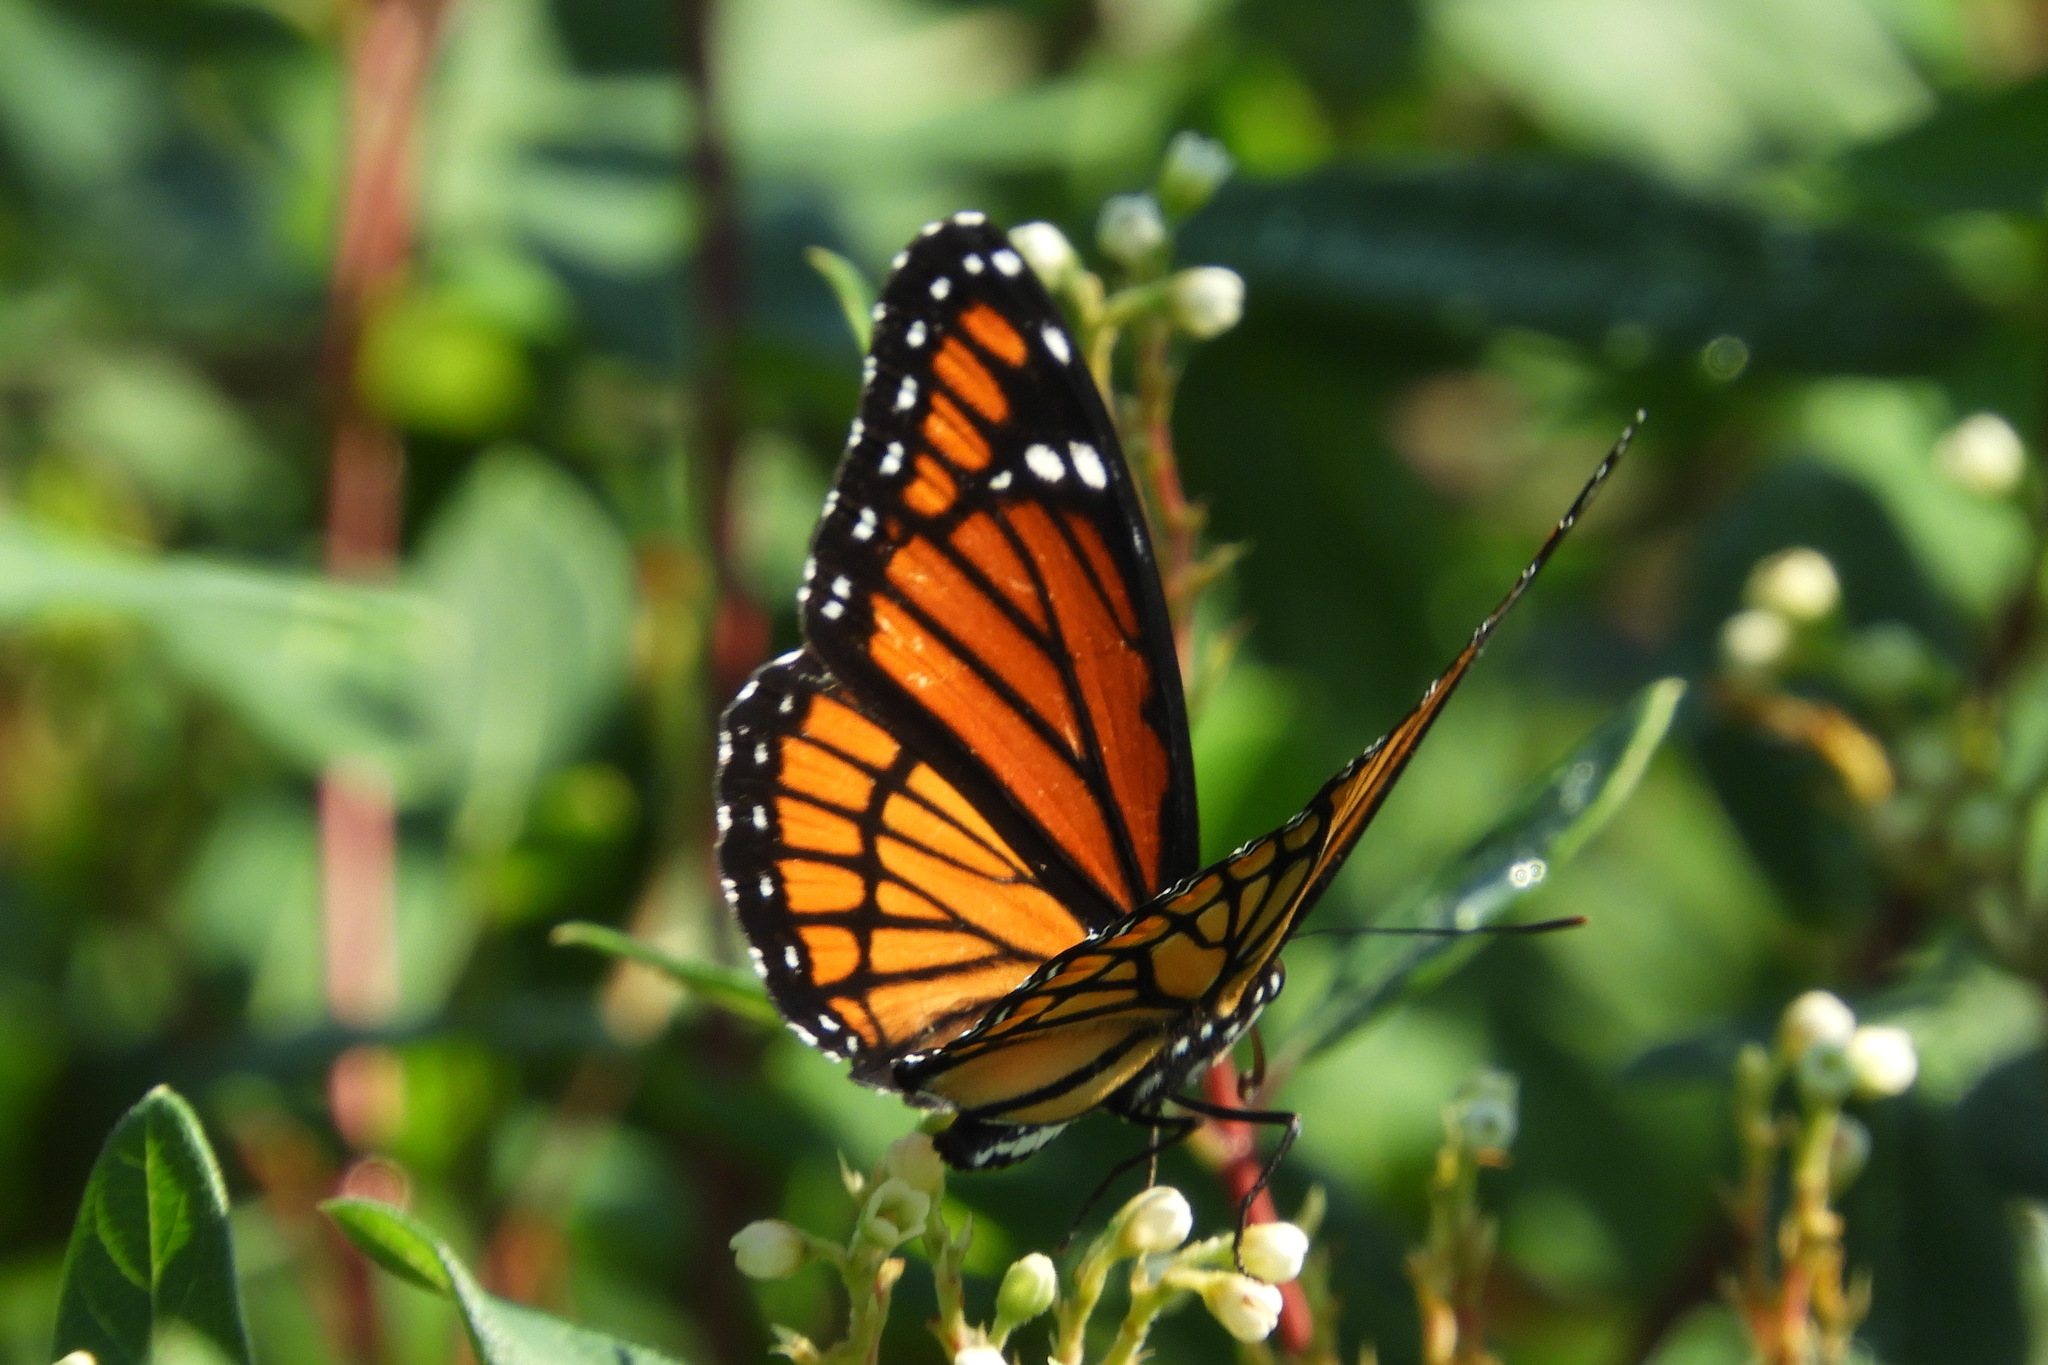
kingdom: Animalia
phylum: Arthropoda
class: Insecta
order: Lepidoptera
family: Nymphalidae
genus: Limenitis
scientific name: Limenitis archippus
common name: Viceroy
